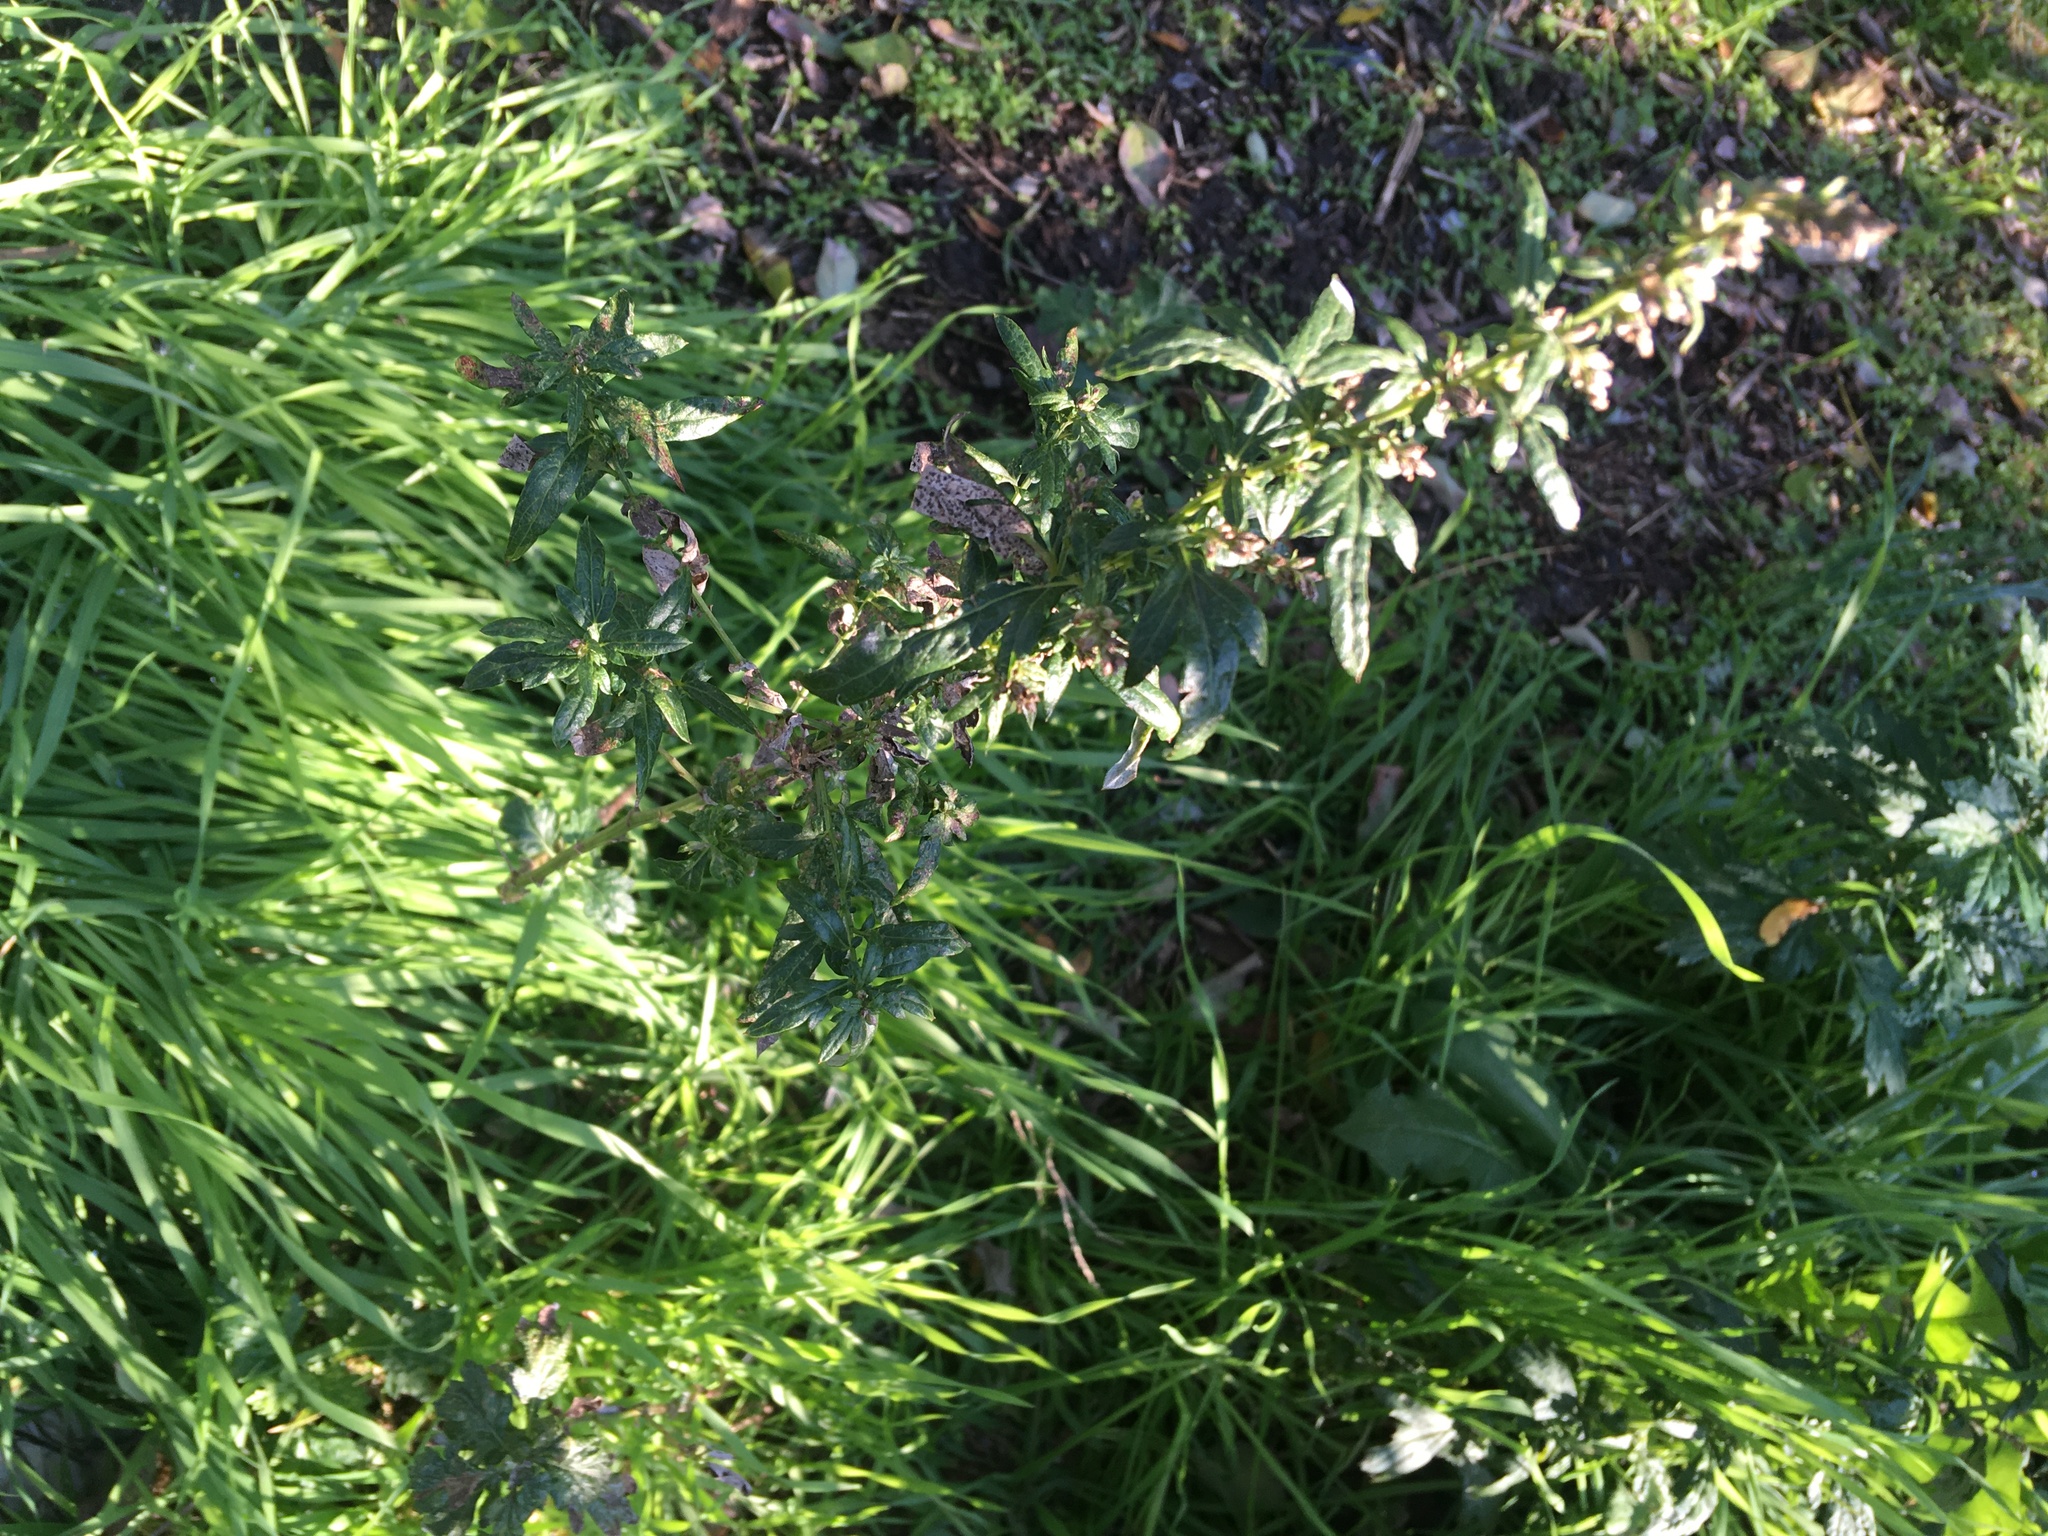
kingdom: Plantae
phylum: Tracheophyta
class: Magnoliopsida
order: Asterales
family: Asteraceae
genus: Artemisia
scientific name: Artemisia vulgaris
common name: Mugwort
